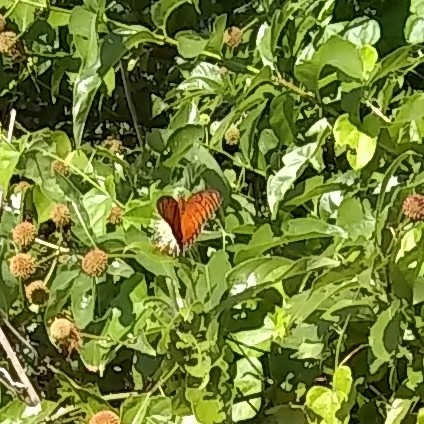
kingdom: Animalia
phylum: Arthropoda
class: Insecta
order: Lepidoptera
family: Nymphalidae
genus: Dione
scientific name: Dione vanillae
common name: Gulf fritillary
